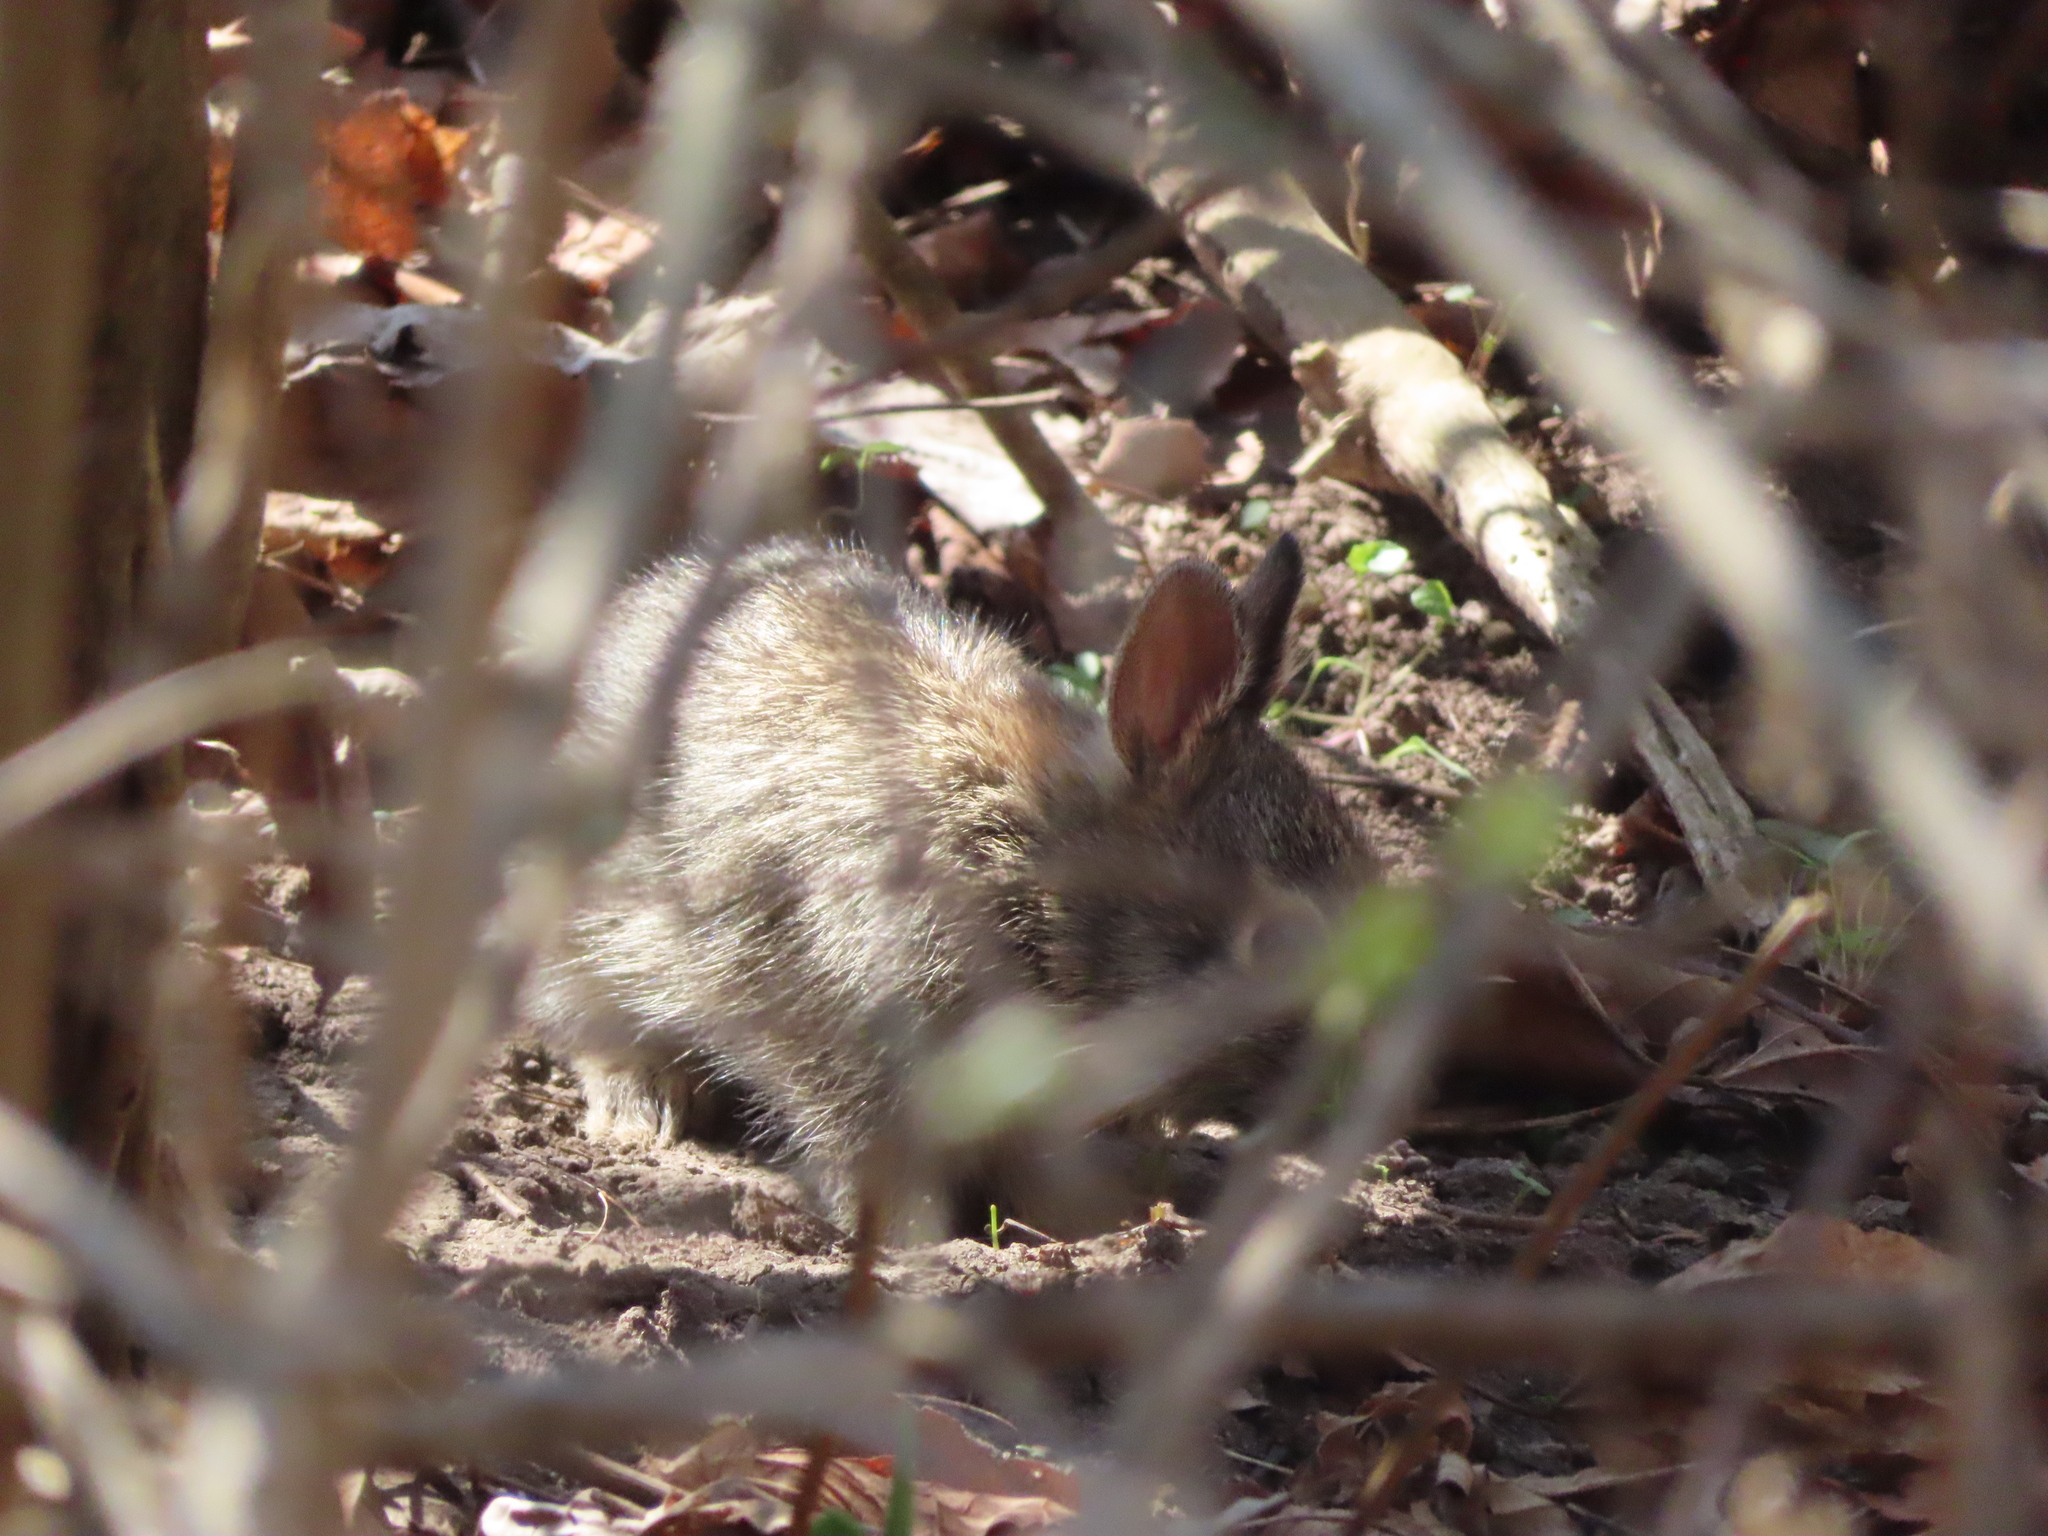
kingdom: Animalia
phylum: Chordata
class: Mammalia
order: Lagomorpha
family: Leporidae
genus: Sylvilagus
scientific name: Sylvilagus floridanus
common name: Eastern cottontail
